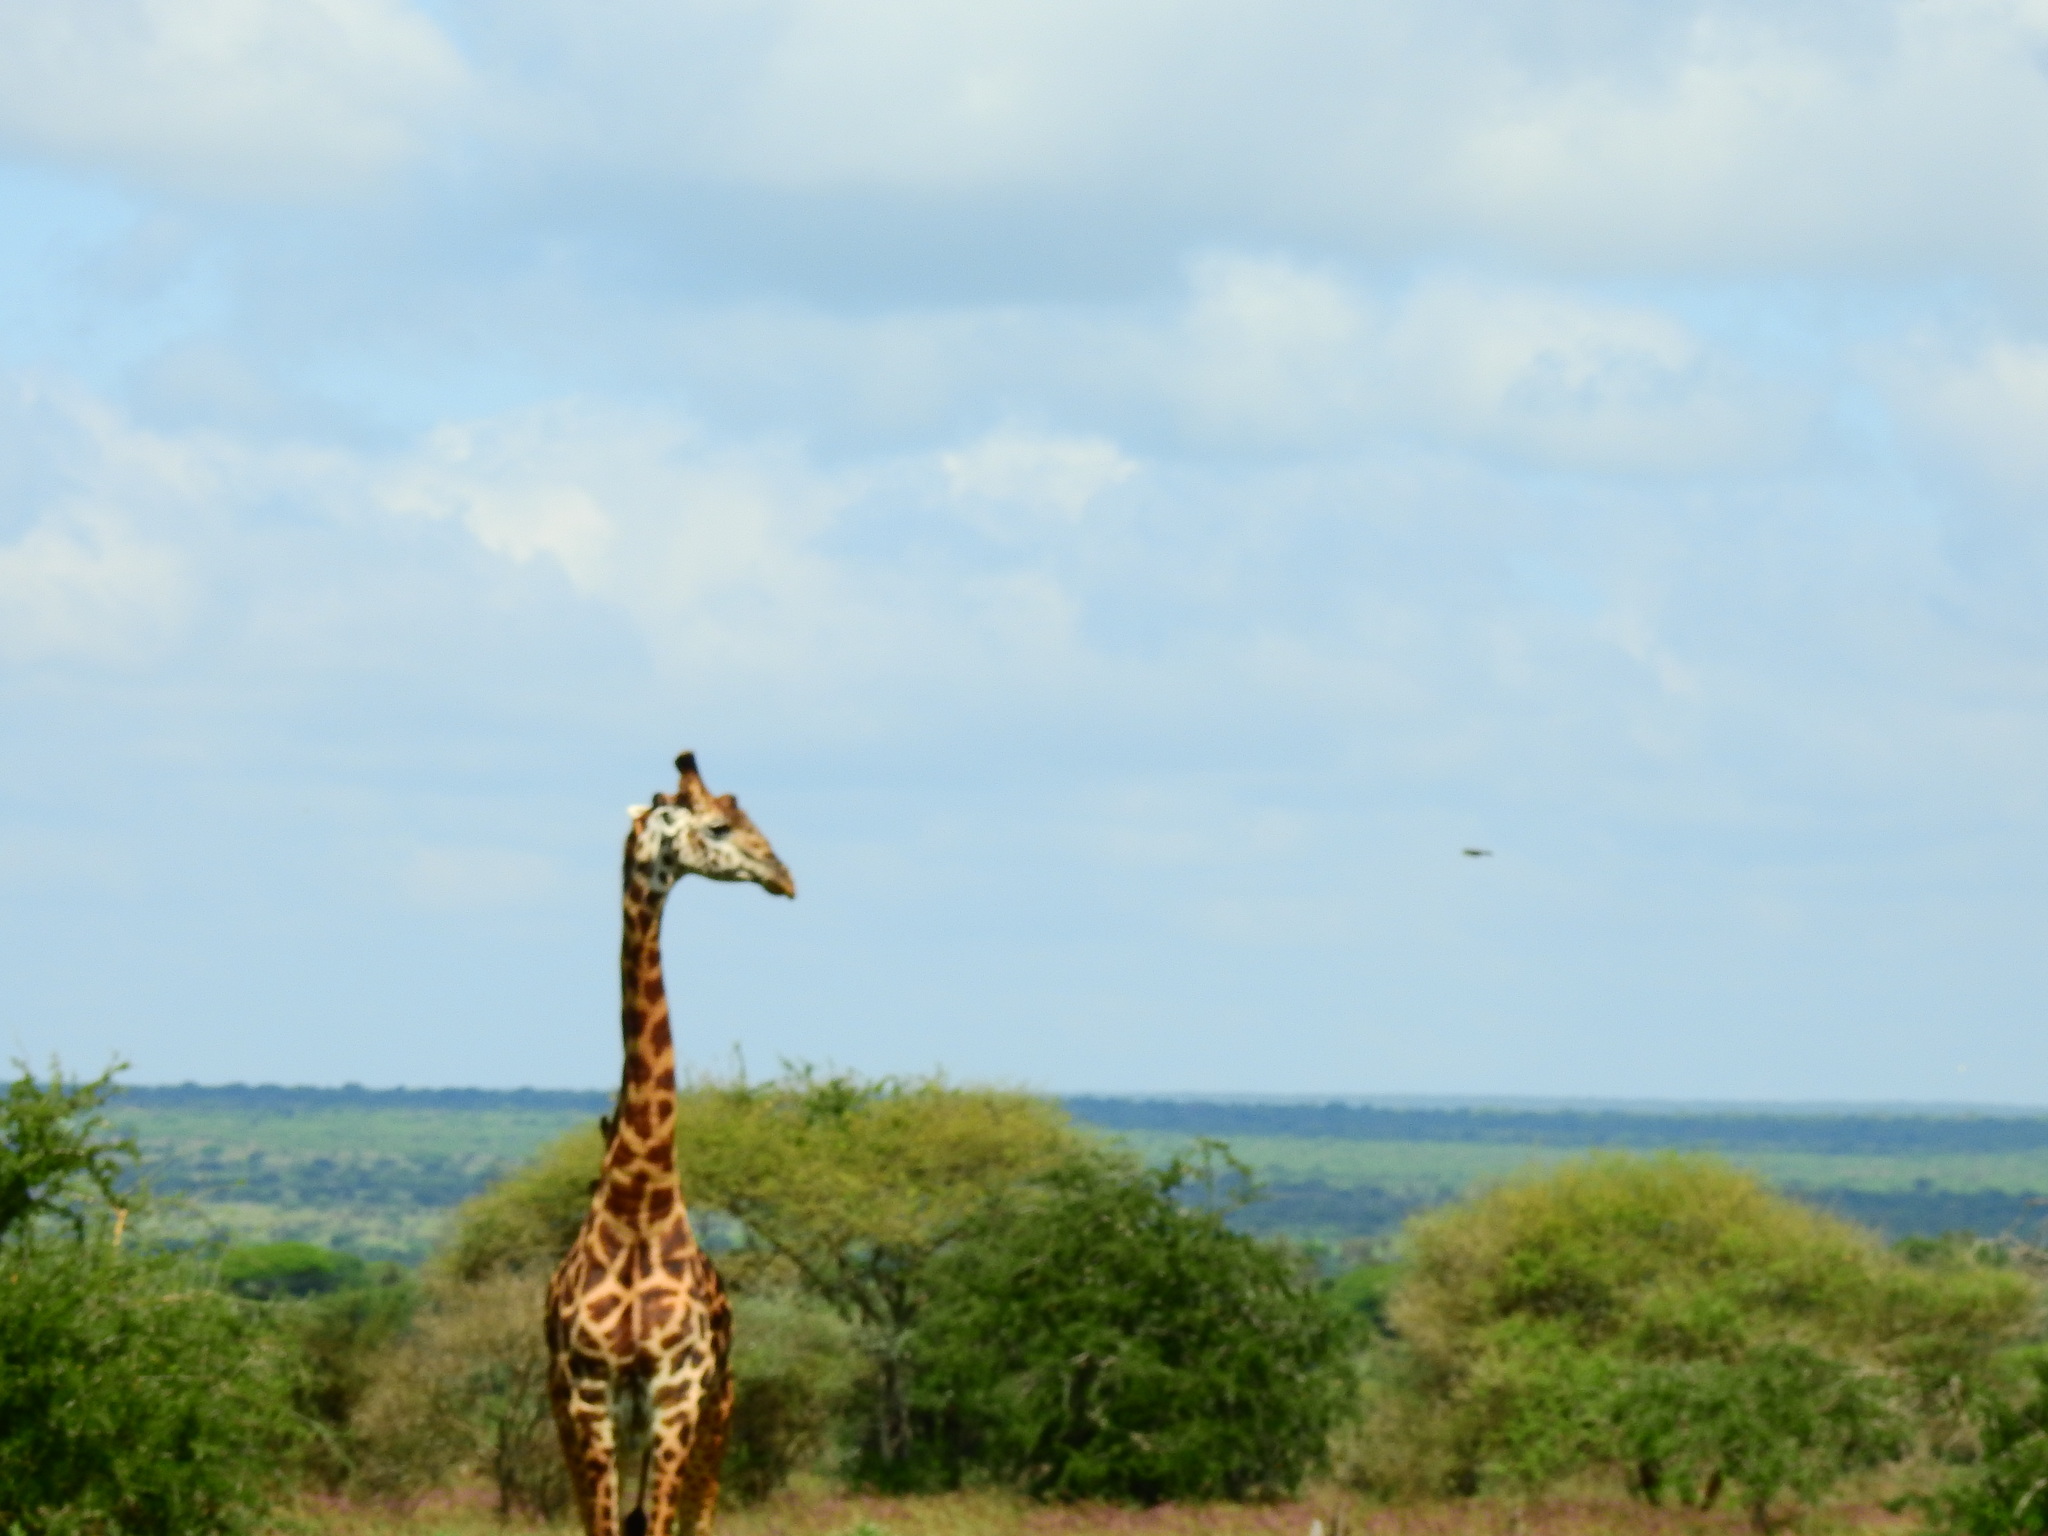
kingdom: Animalia
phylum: Chordata
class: Mammalia
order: Artiodactyla
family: Giraffidae
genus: Giraffa
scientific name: Giraffa tippelskirchi
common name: Masai giraffe
